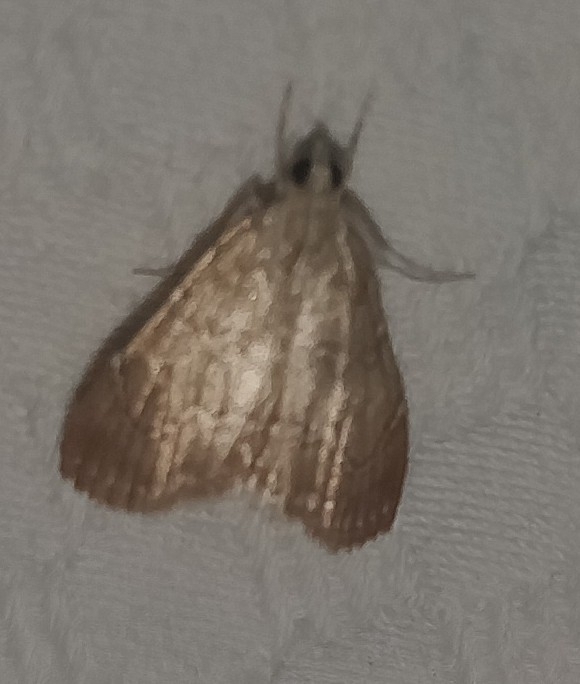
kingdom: Animalia
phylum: Arthropoda
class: Insecta
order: Lepidoptera
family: Crambidae
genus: Glaphyria
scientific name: Glaphyria sesquistrialis
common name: White-roped glaphyria
